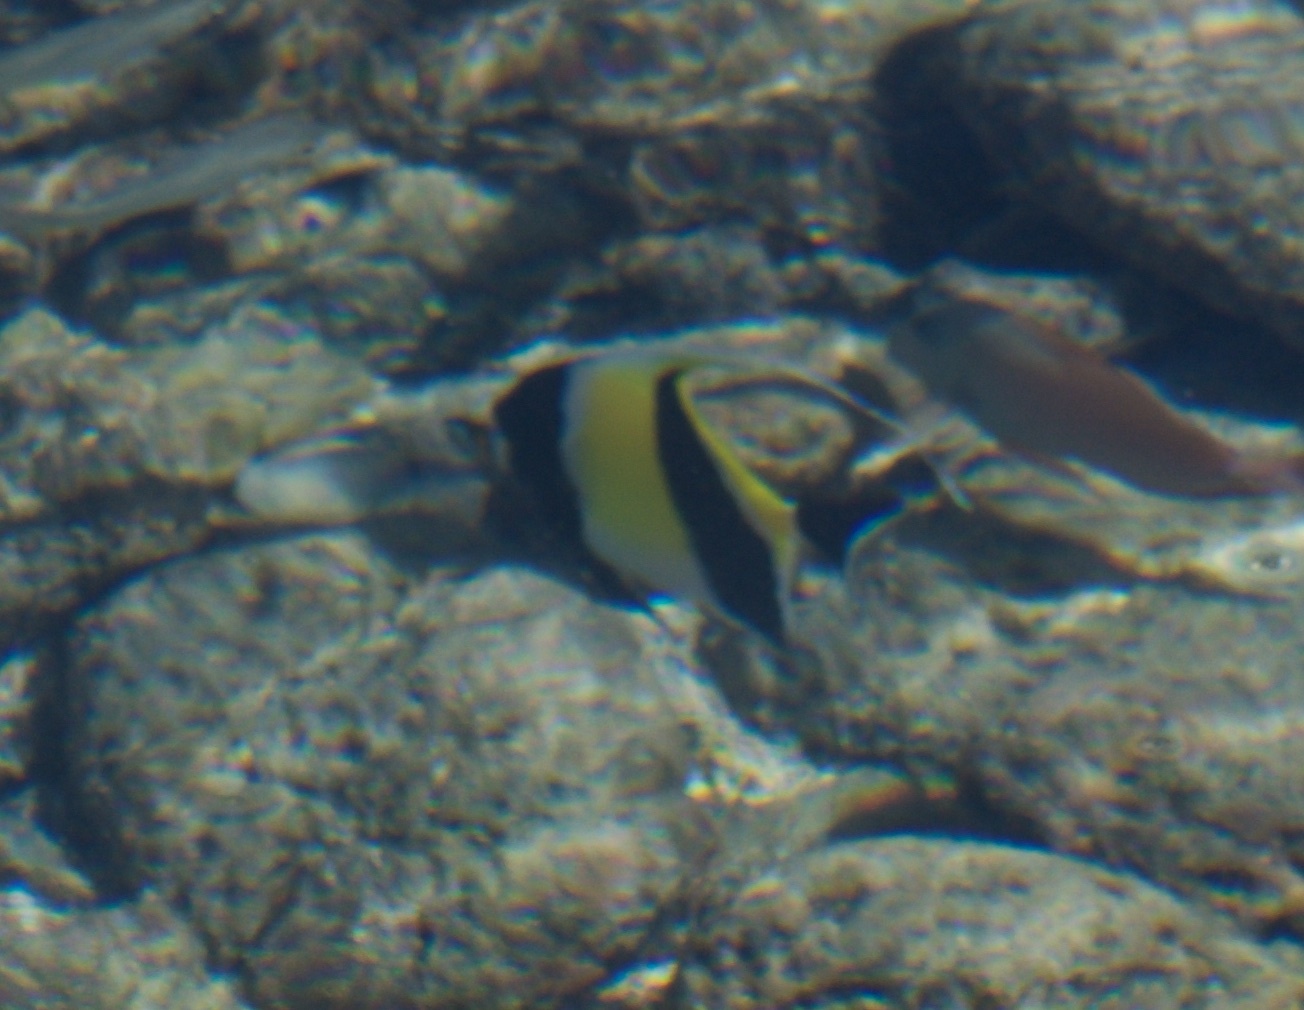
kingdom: Animalia
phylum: Chordata
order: Perciformes
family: Zanclidae
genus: Zanclus
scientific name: Zanclus cornutus
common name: Moorish idol
